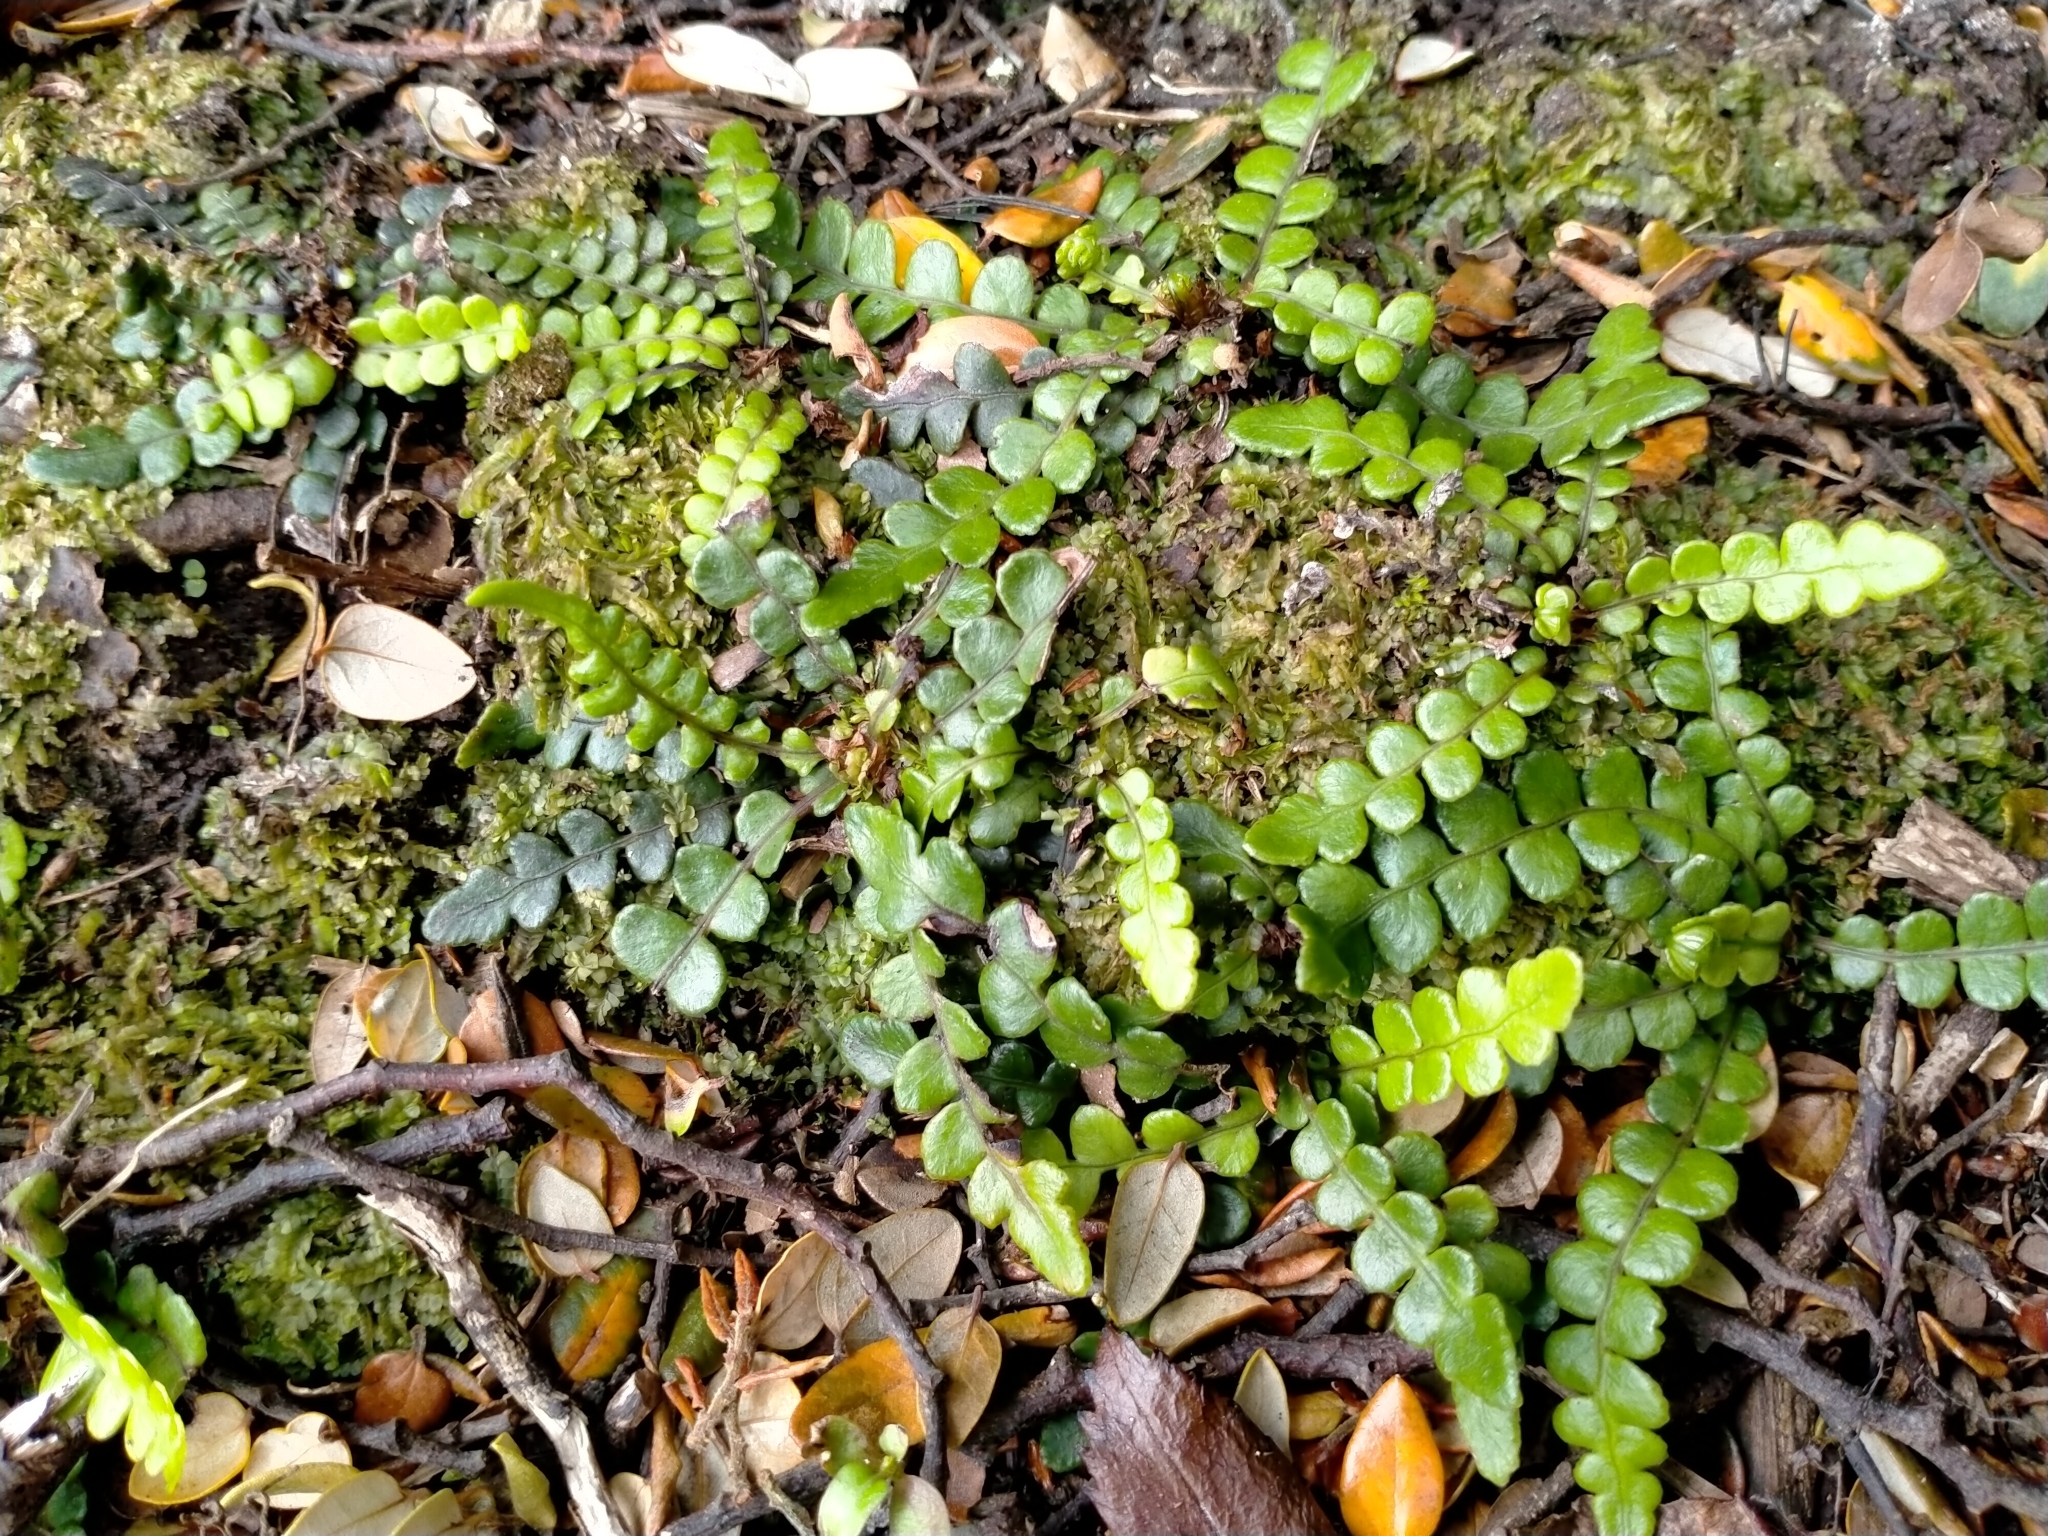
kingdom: Plantae
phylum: Tracheophyta
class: Polypodiopsida
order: Polypodiales
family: Blechnaceae
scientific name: Blechnaceae
